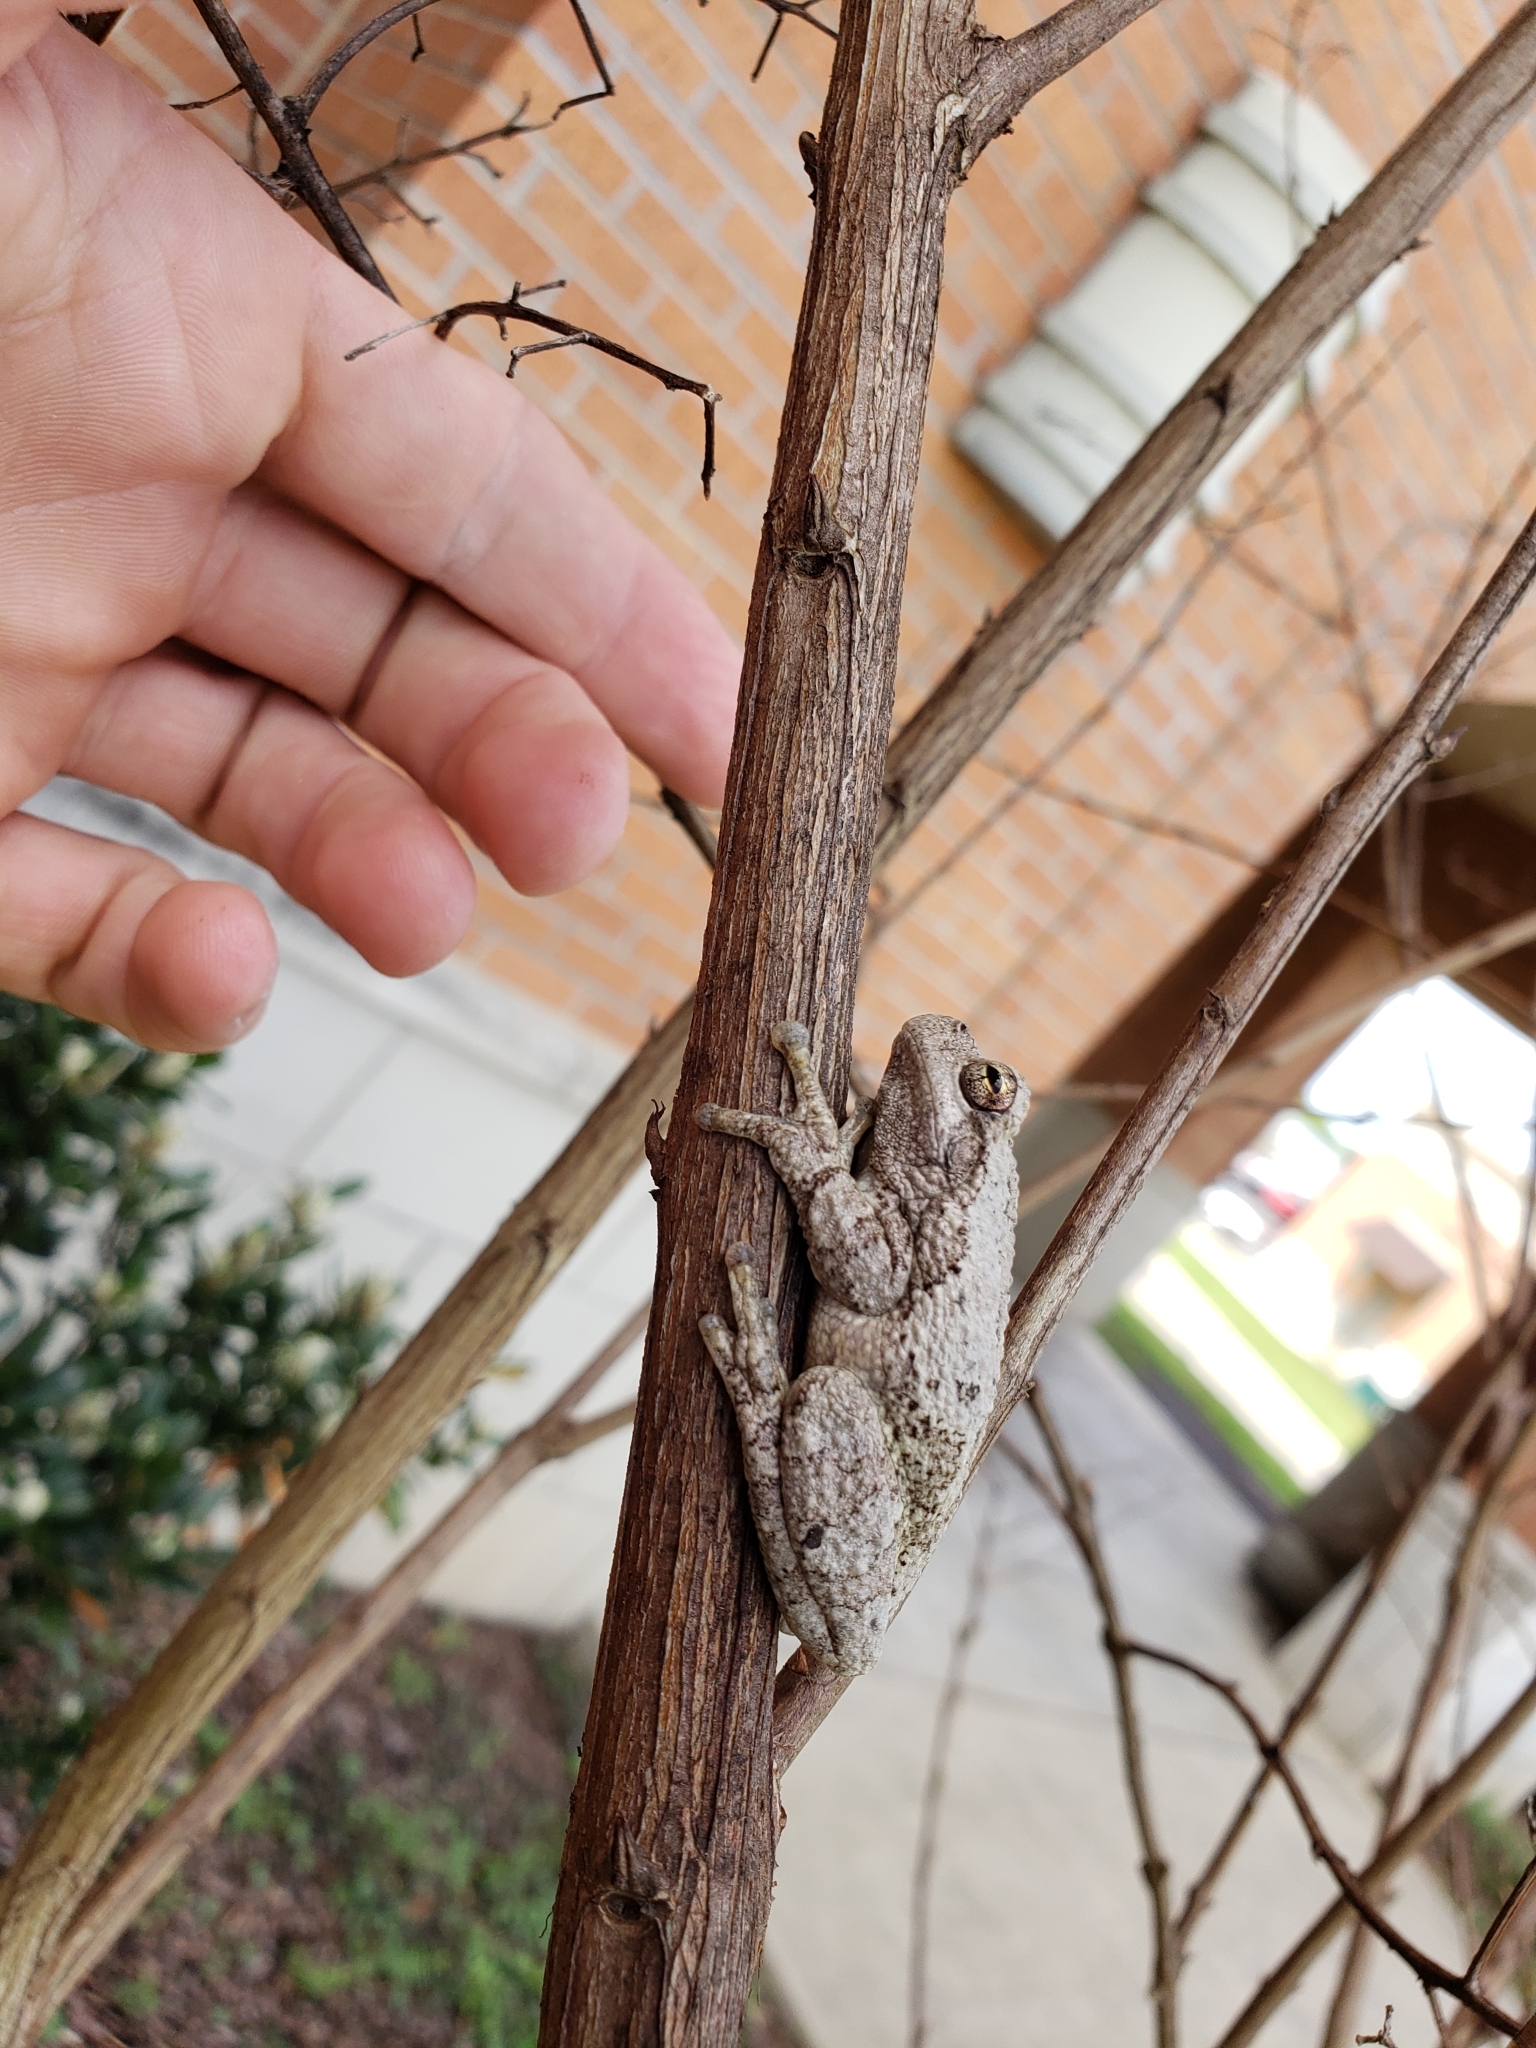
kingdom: Animalia
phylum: Chordata
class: Amphibia
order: Anura
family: Hylidae
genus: Dryophytes
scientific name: Dryophytes chrysoscelis
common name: Cope's gray treefrog
